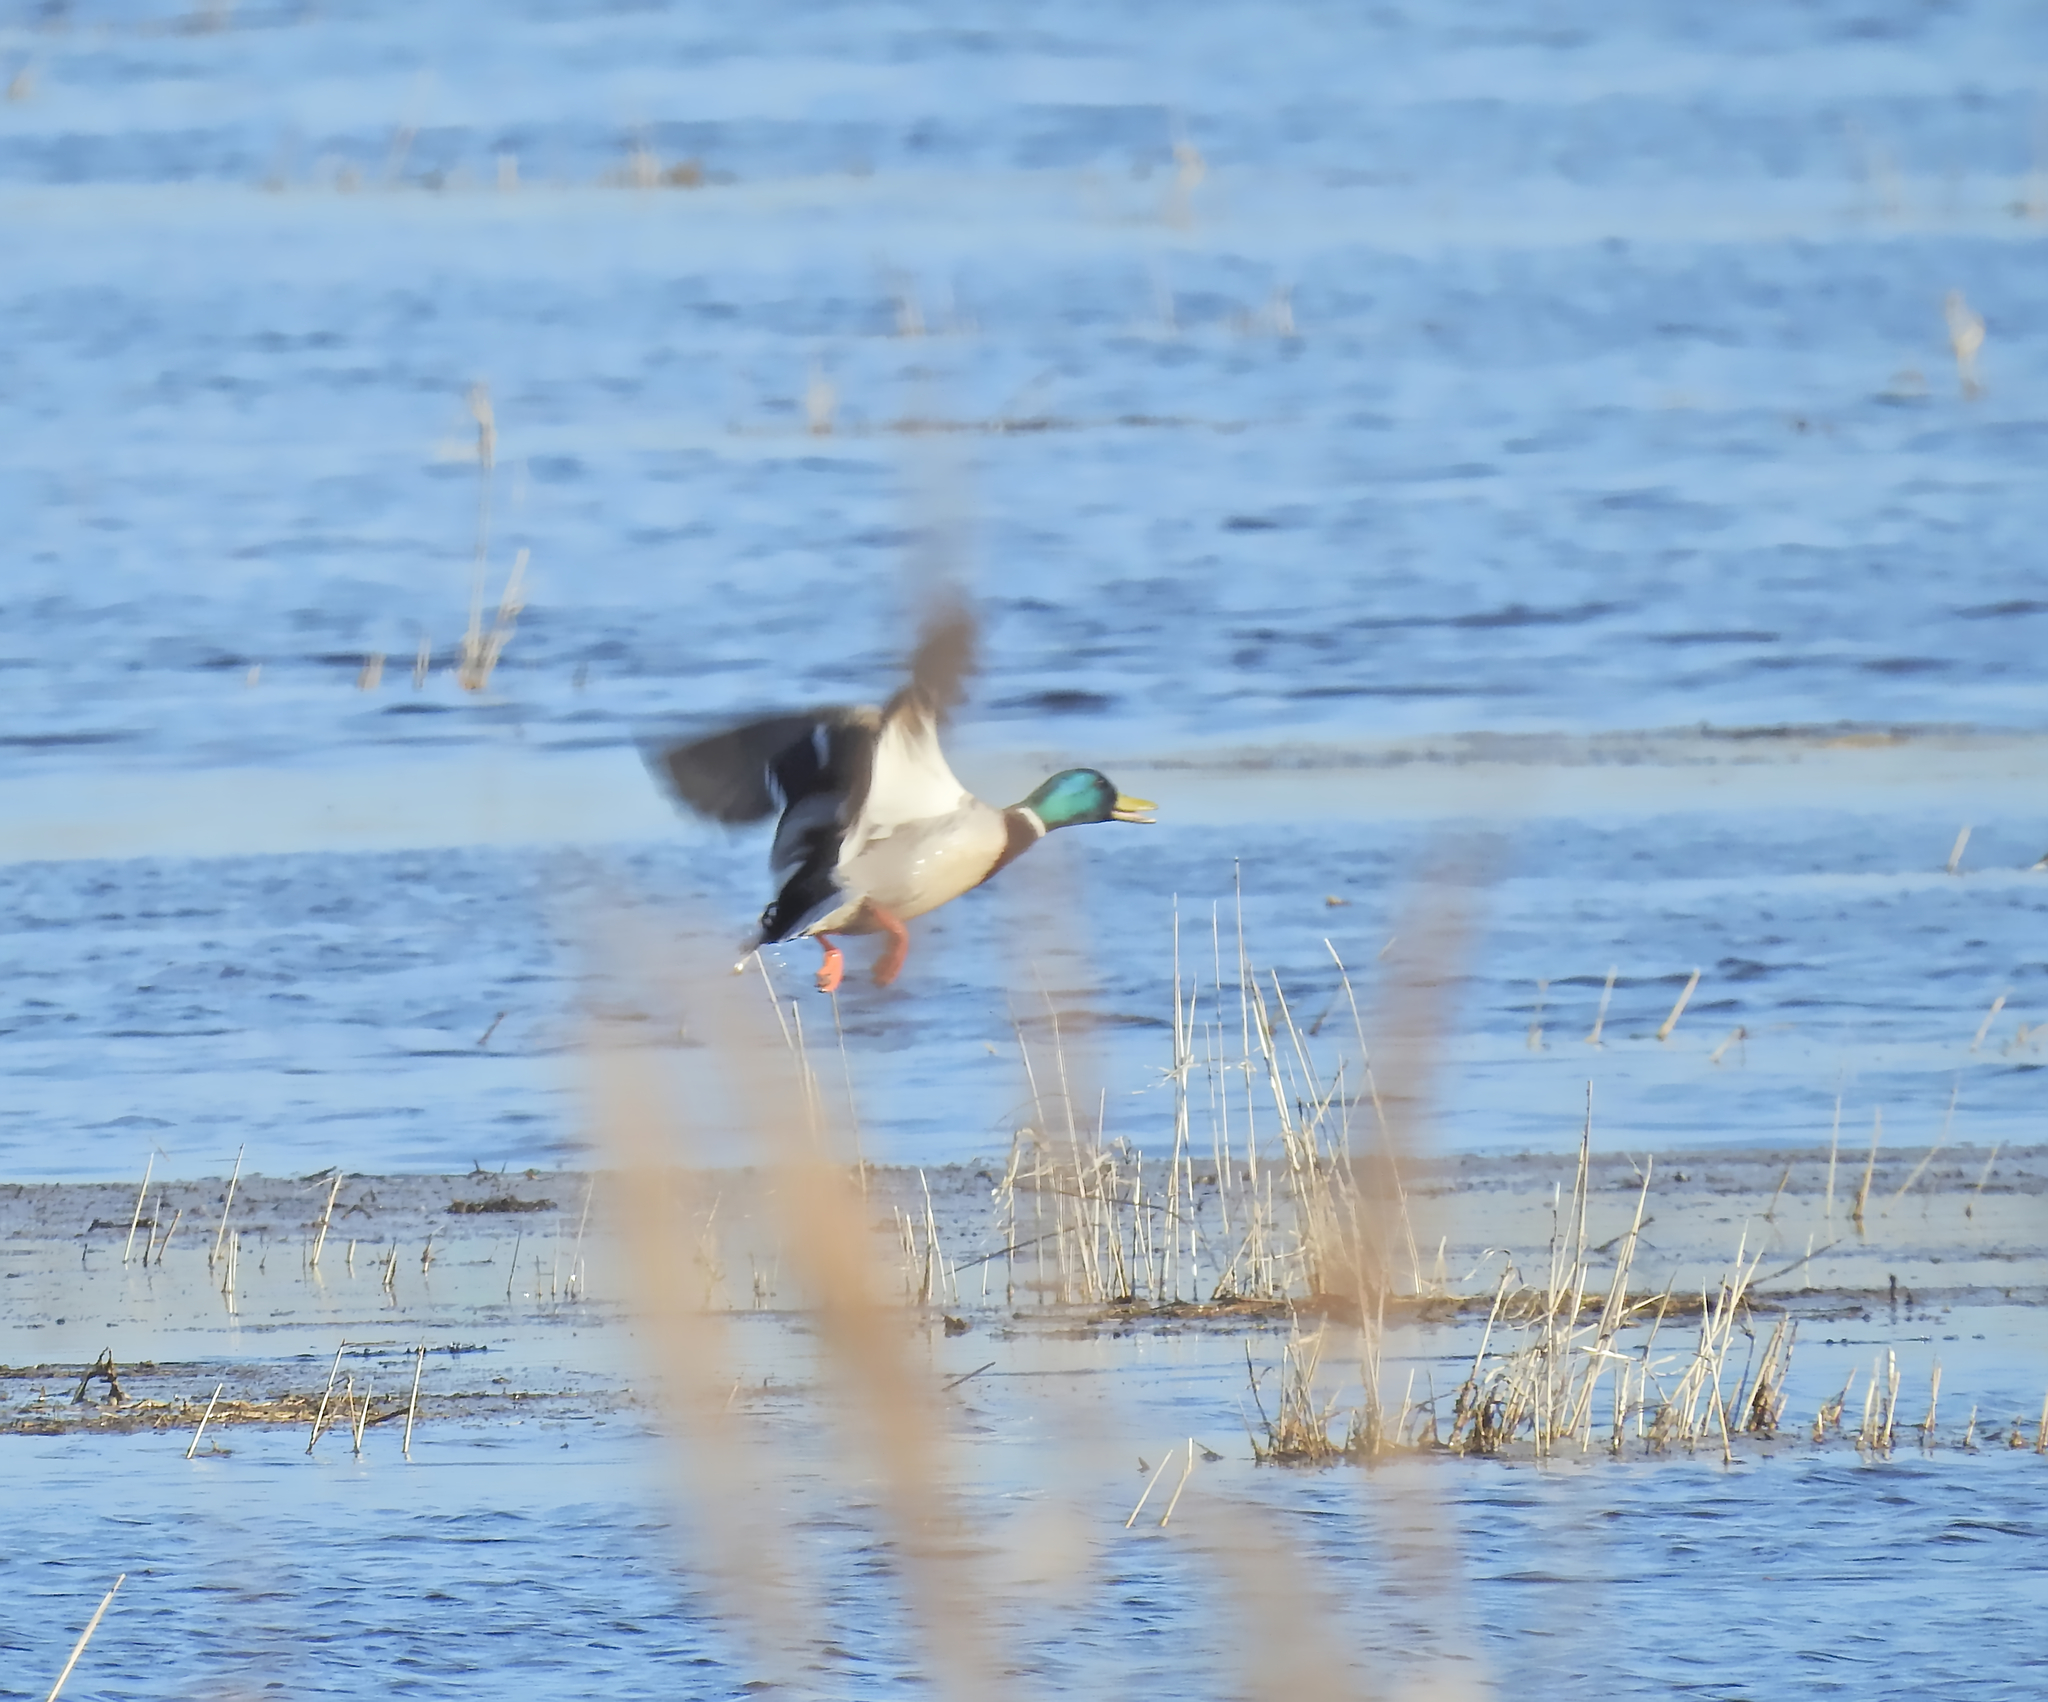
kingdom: Animalia
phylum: Chordata
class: Aves
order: Anseriformes
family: Anatidae
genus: Anas
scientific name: Anas platyrhynchos
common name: Mallard
